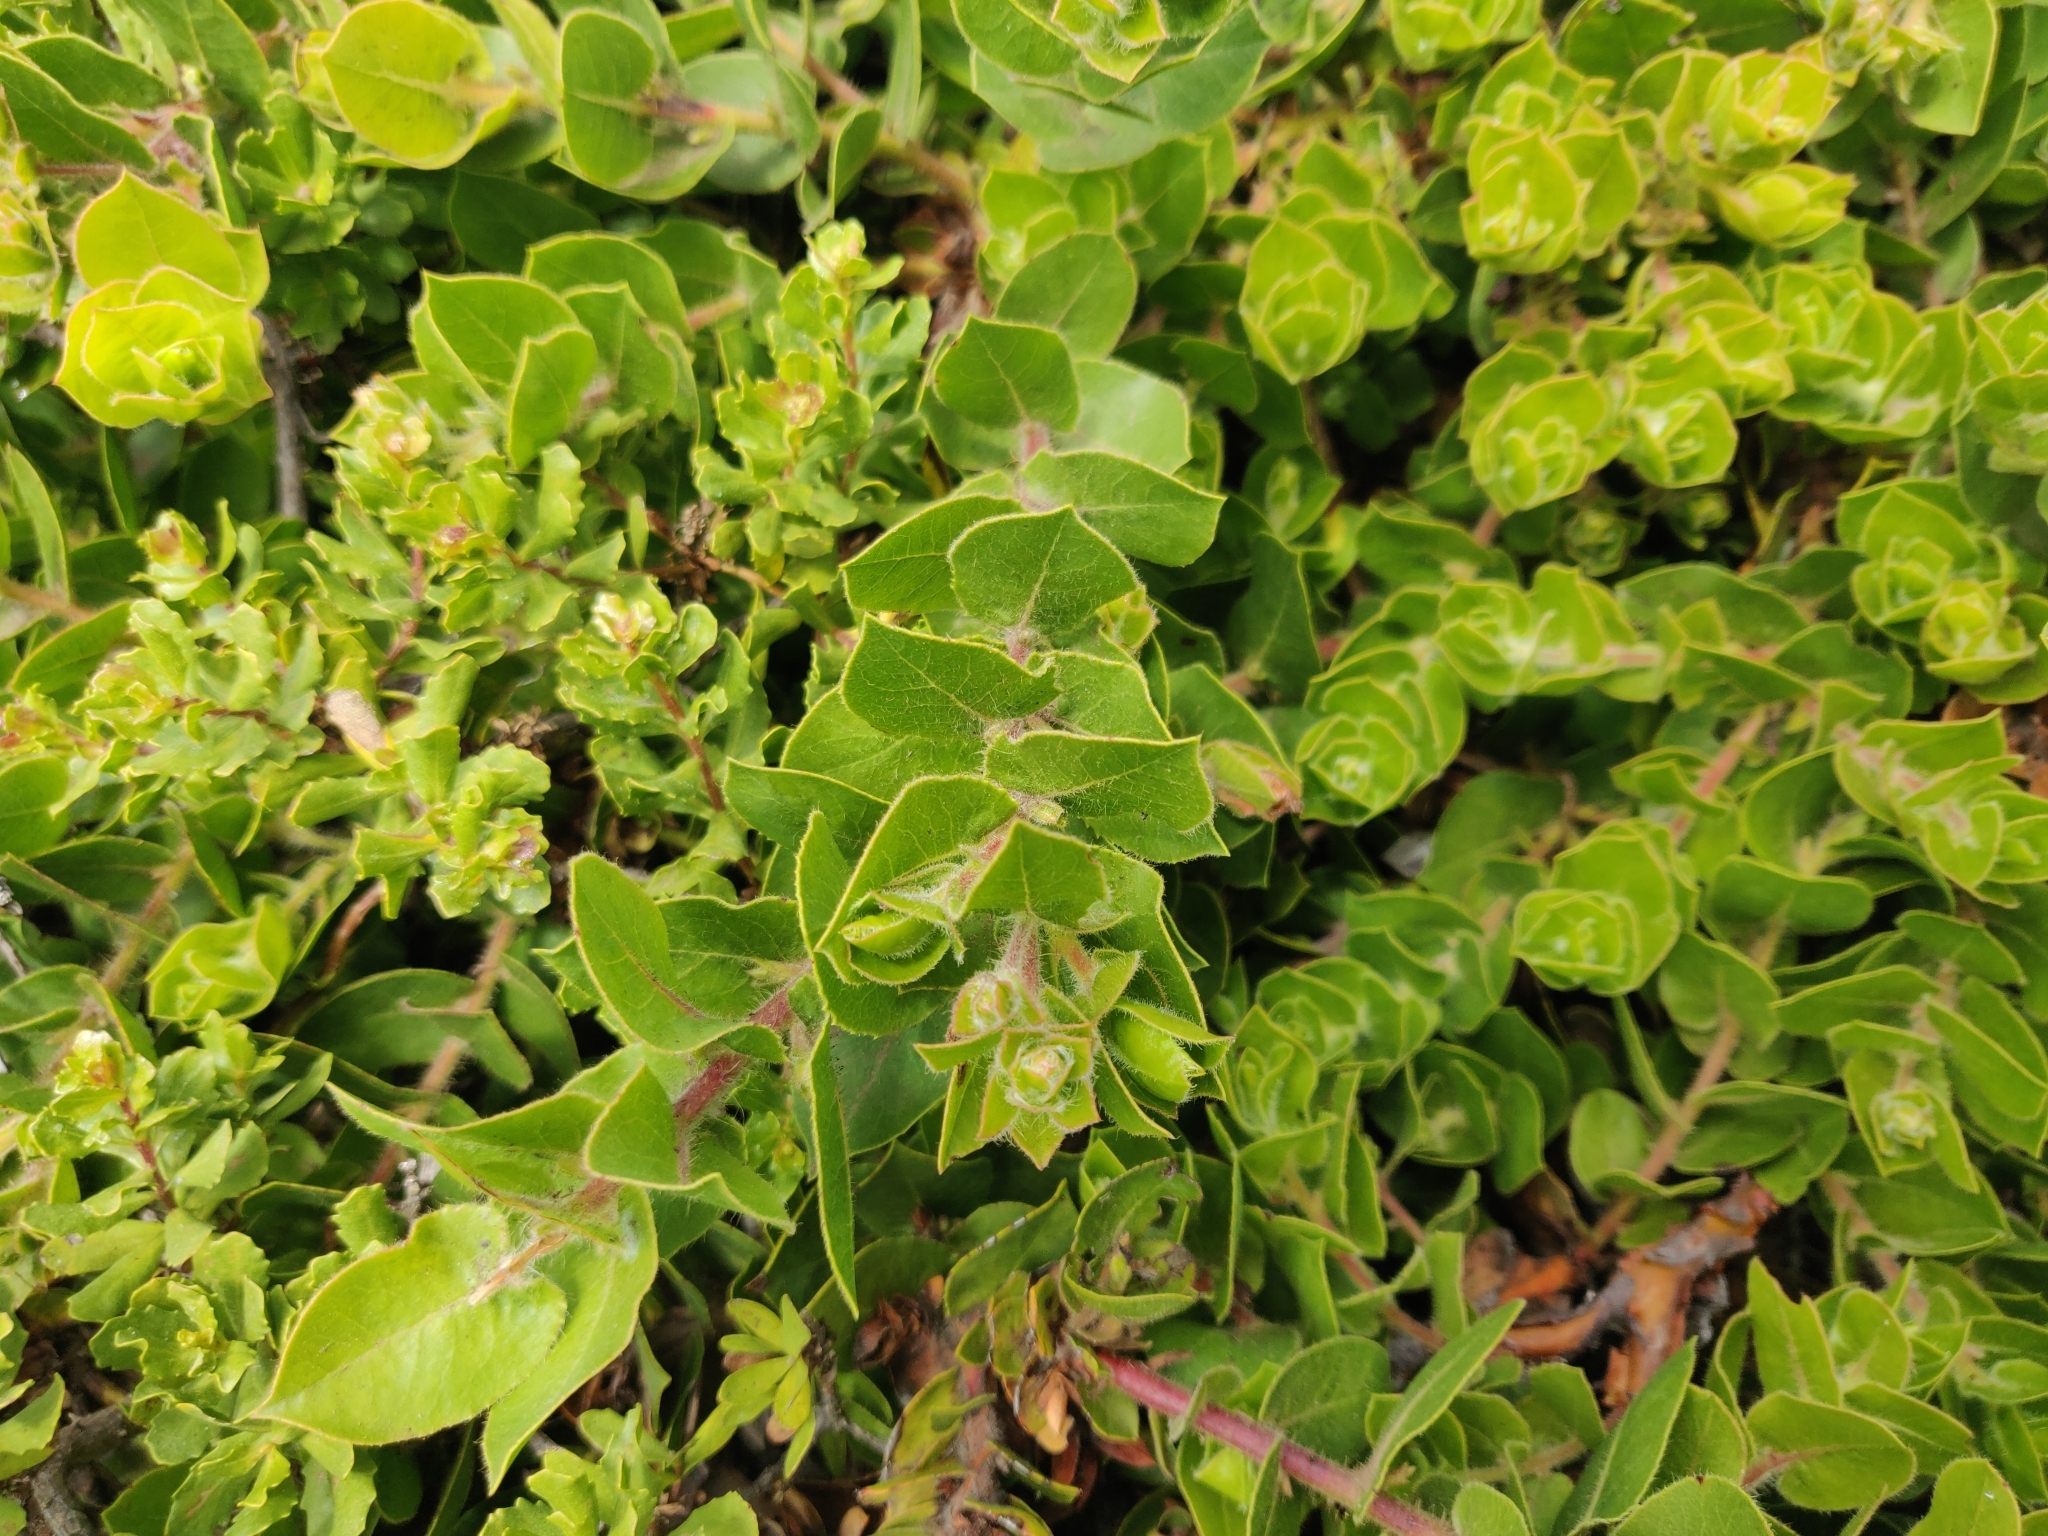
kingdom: Plantae
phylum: Tracheophyta
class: Magnoliopsida
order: Ericales
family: Ericaceae
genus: Arctostaphylos
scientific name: Arctostaphylos imbricata
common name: San bruno mountain manzanita
